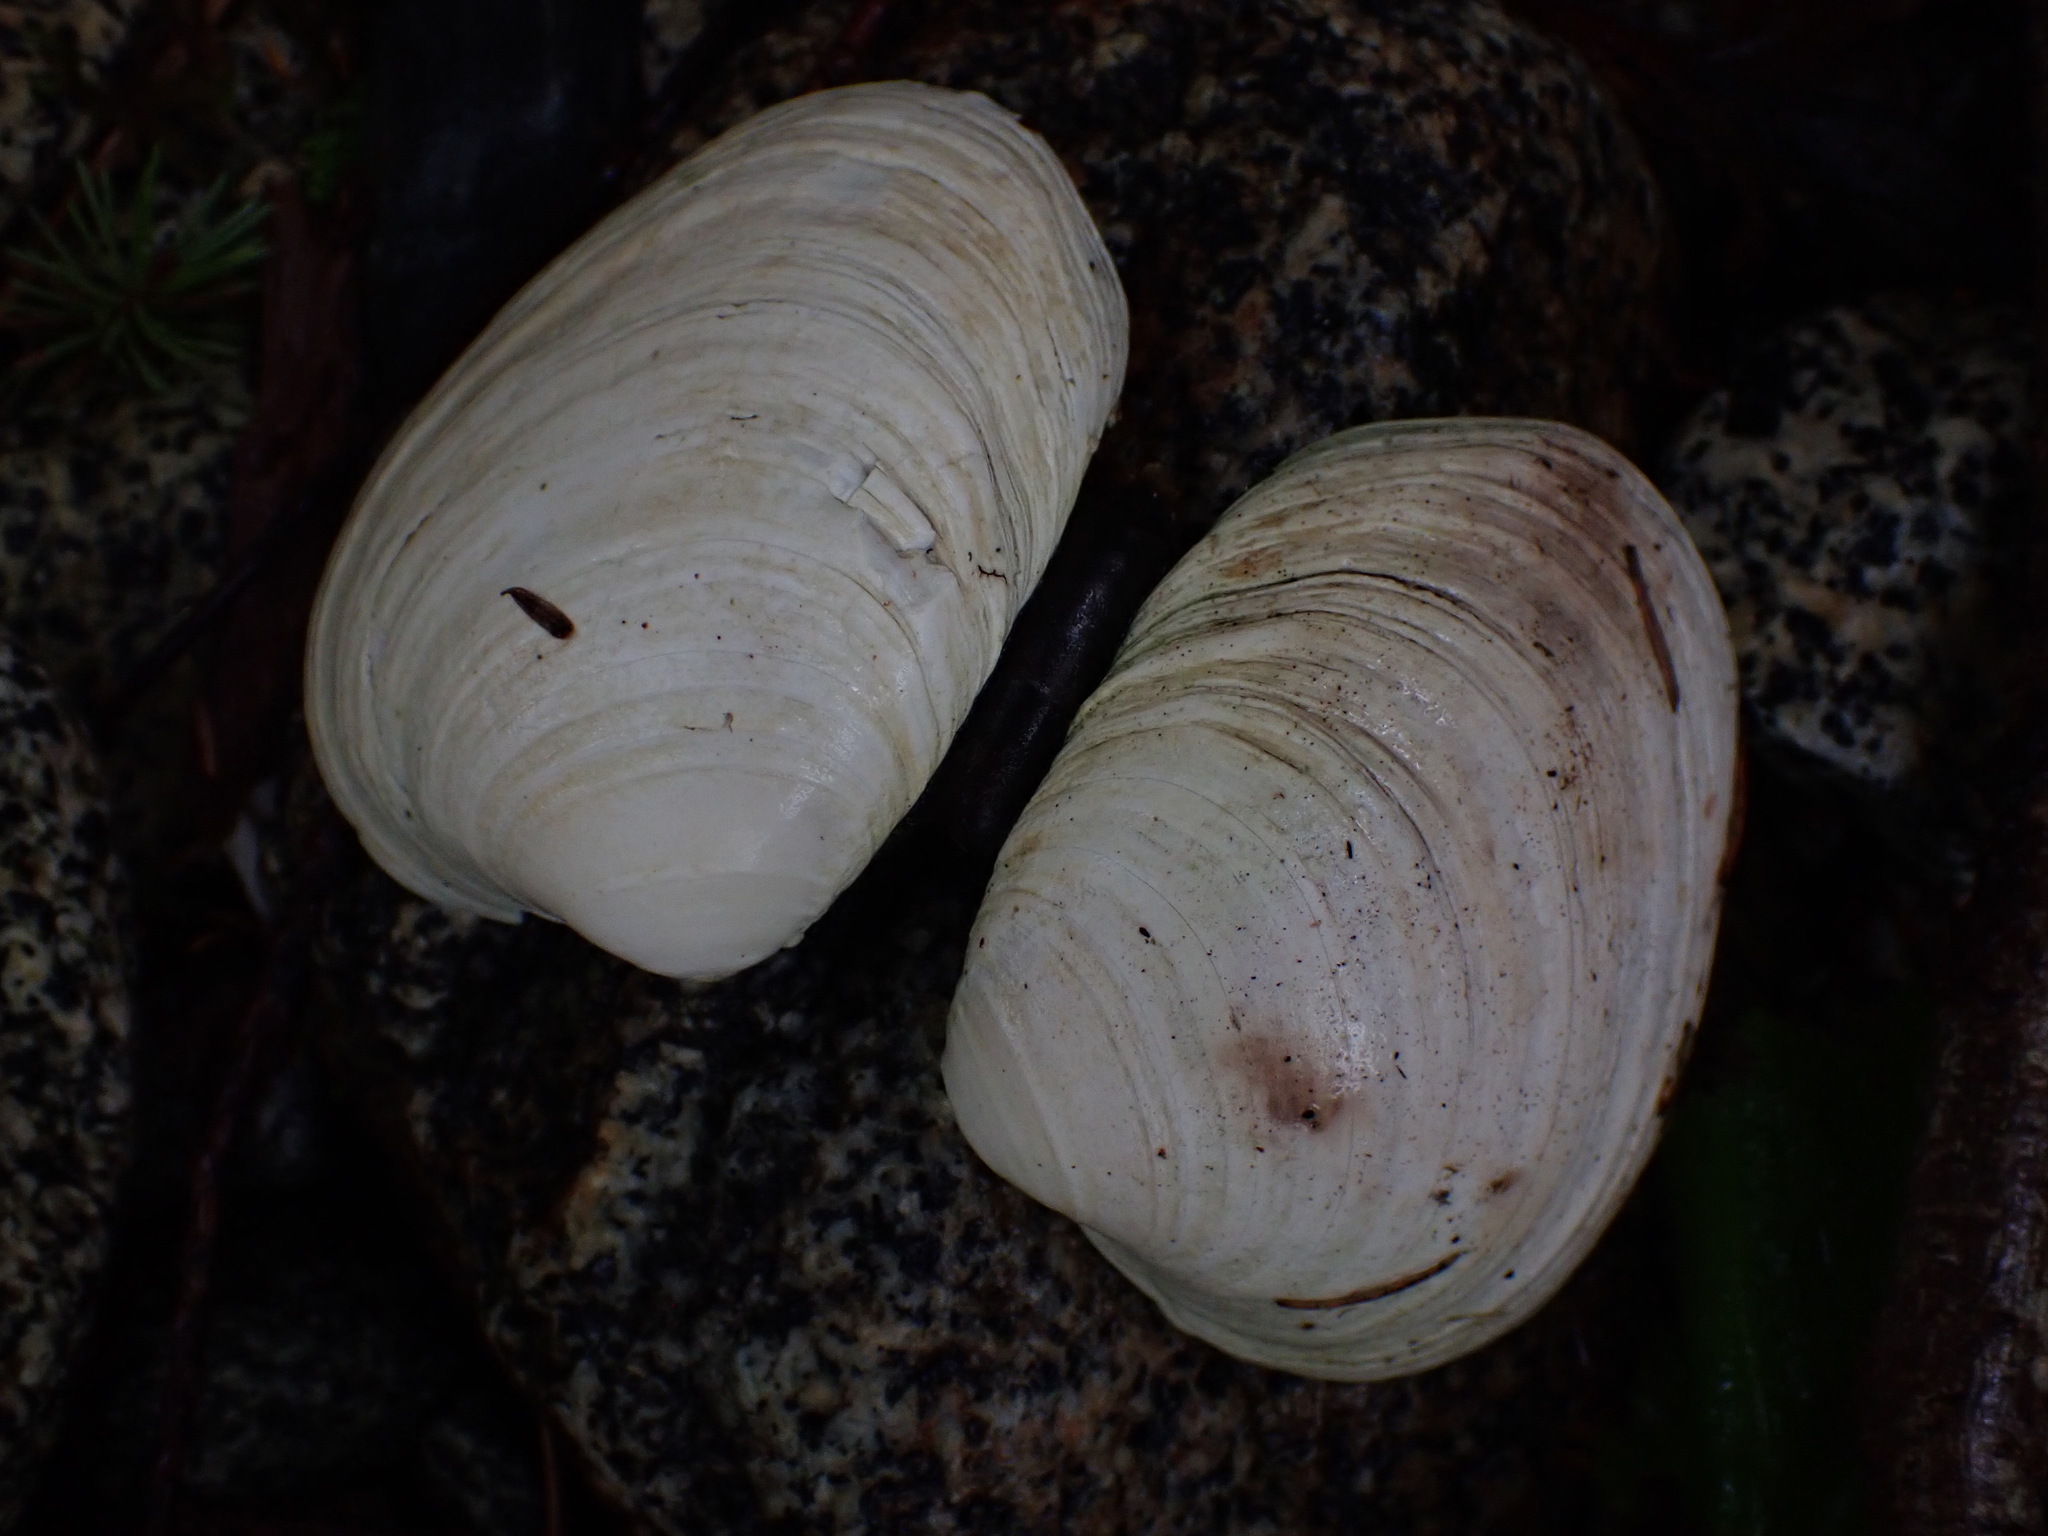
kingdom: Animalia
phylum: Mollusca
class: Bivalvia
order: Venerida
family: Veneridae
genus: Saxidomus
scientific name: Saxidomus gigantea
